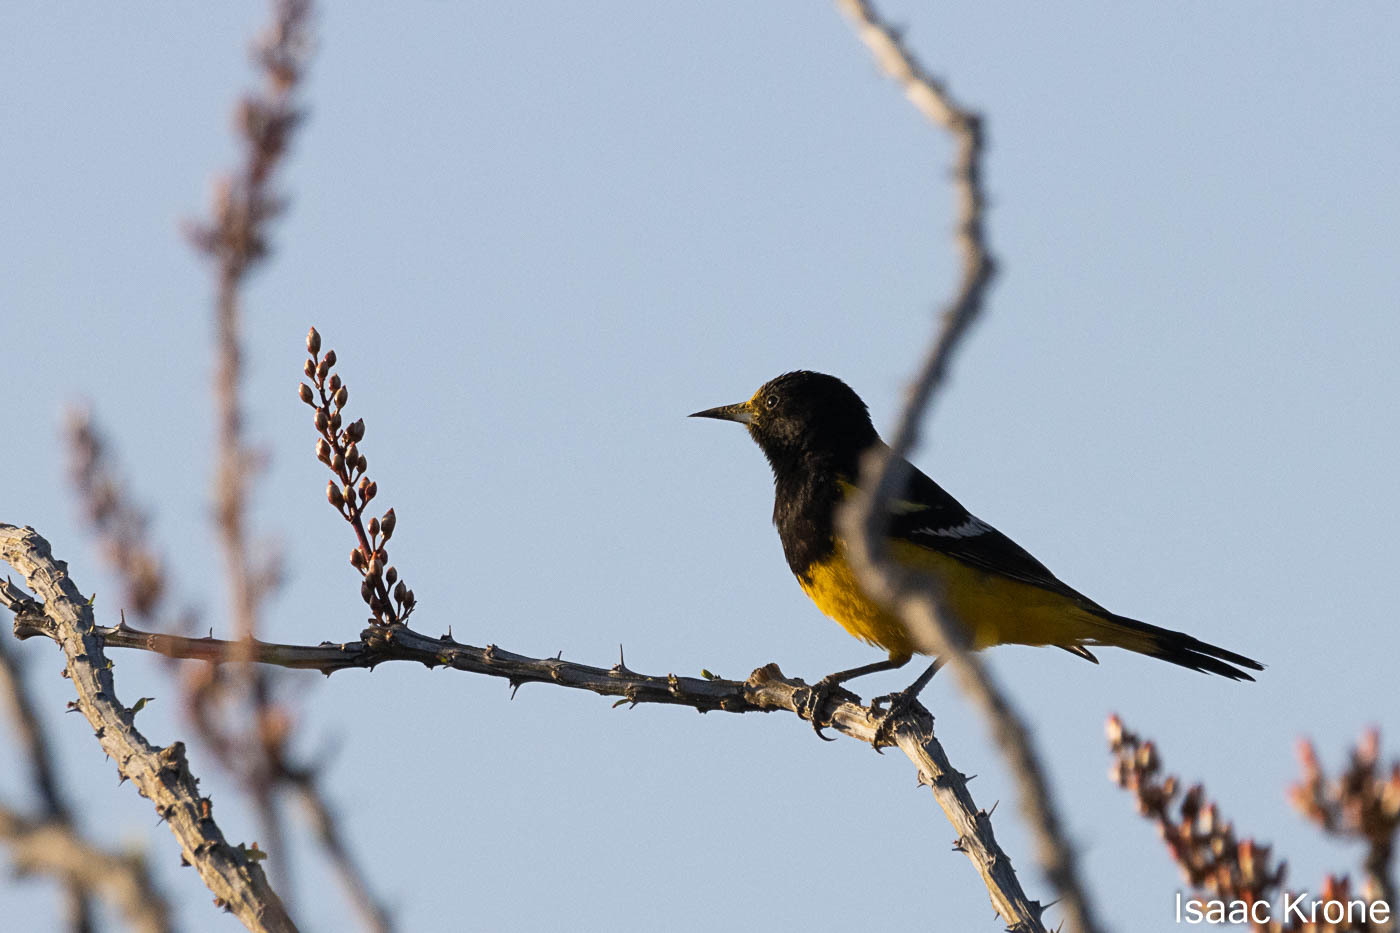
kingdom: Animalia
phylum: Chordata
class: Aves
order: Passeriformes
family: Icteridae
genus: Icterus
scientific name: Icterus parisorum
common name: Scott's oriole
